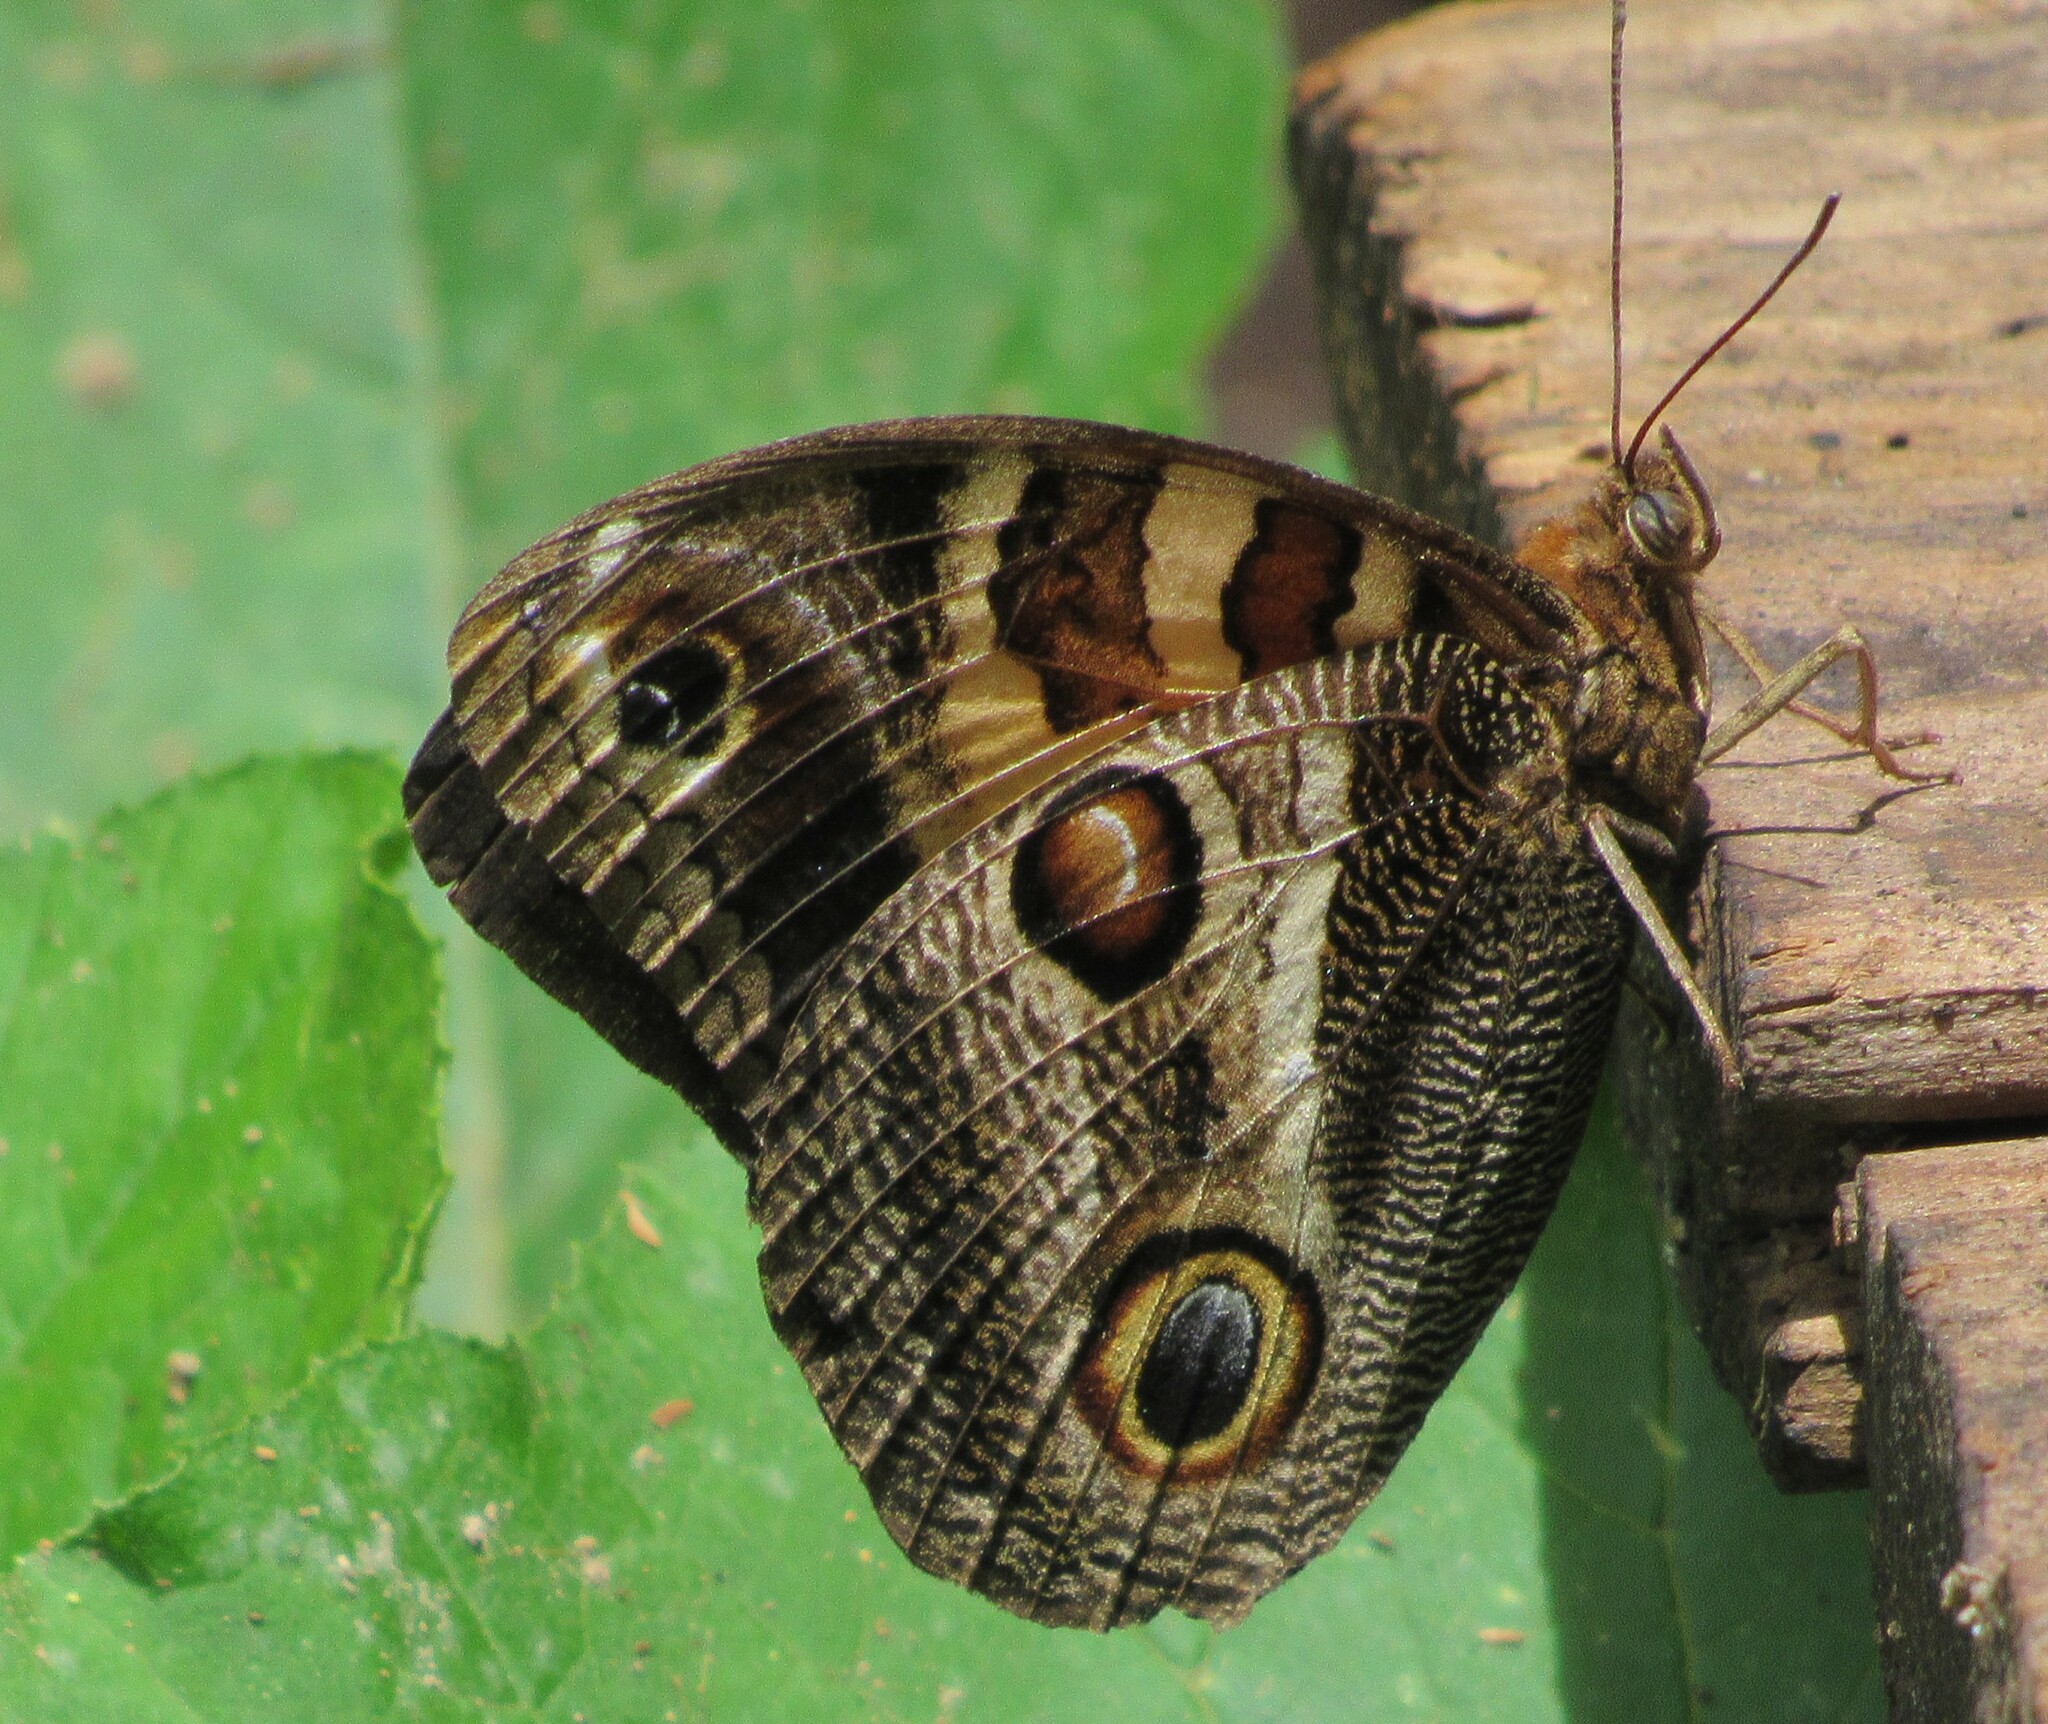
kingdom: Animalia
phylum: Arthropoda
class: Insecta
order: Lepidoptera
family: Nymphalidae
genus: Opsiphanes
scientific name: Opsiphanes batea
